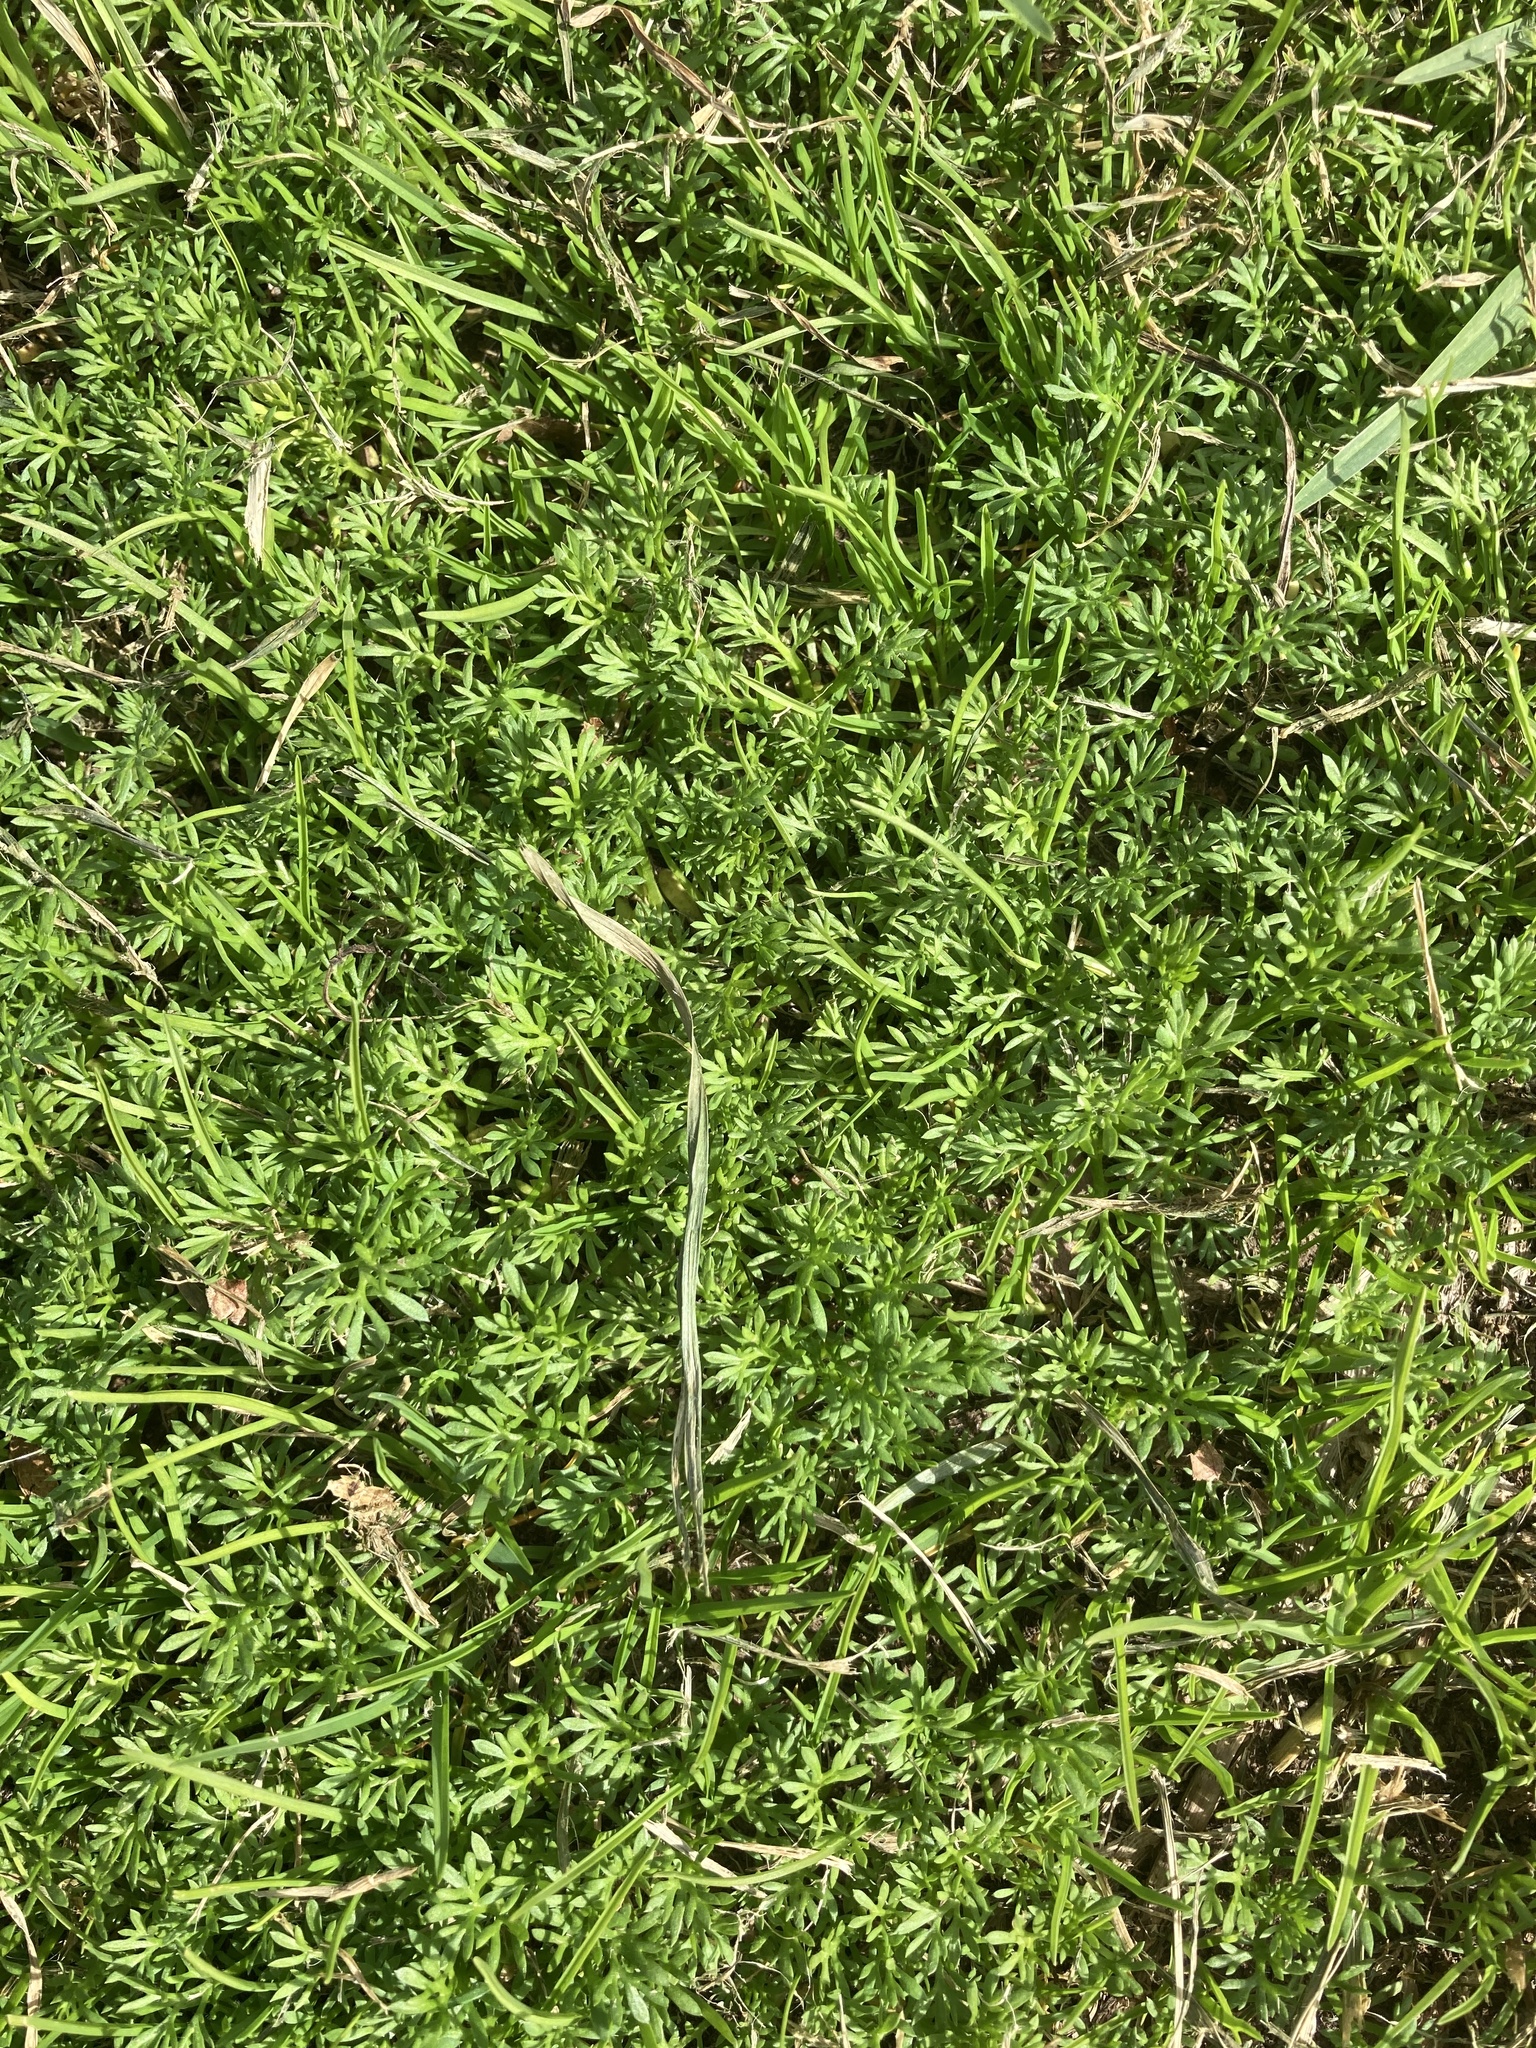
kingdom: Plantae
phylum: Tracheophyta
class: Magnoliopsida
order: Asterales
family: Asteraceae
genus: Soliva
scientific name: Soliva sessilis
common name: Field burrweed
